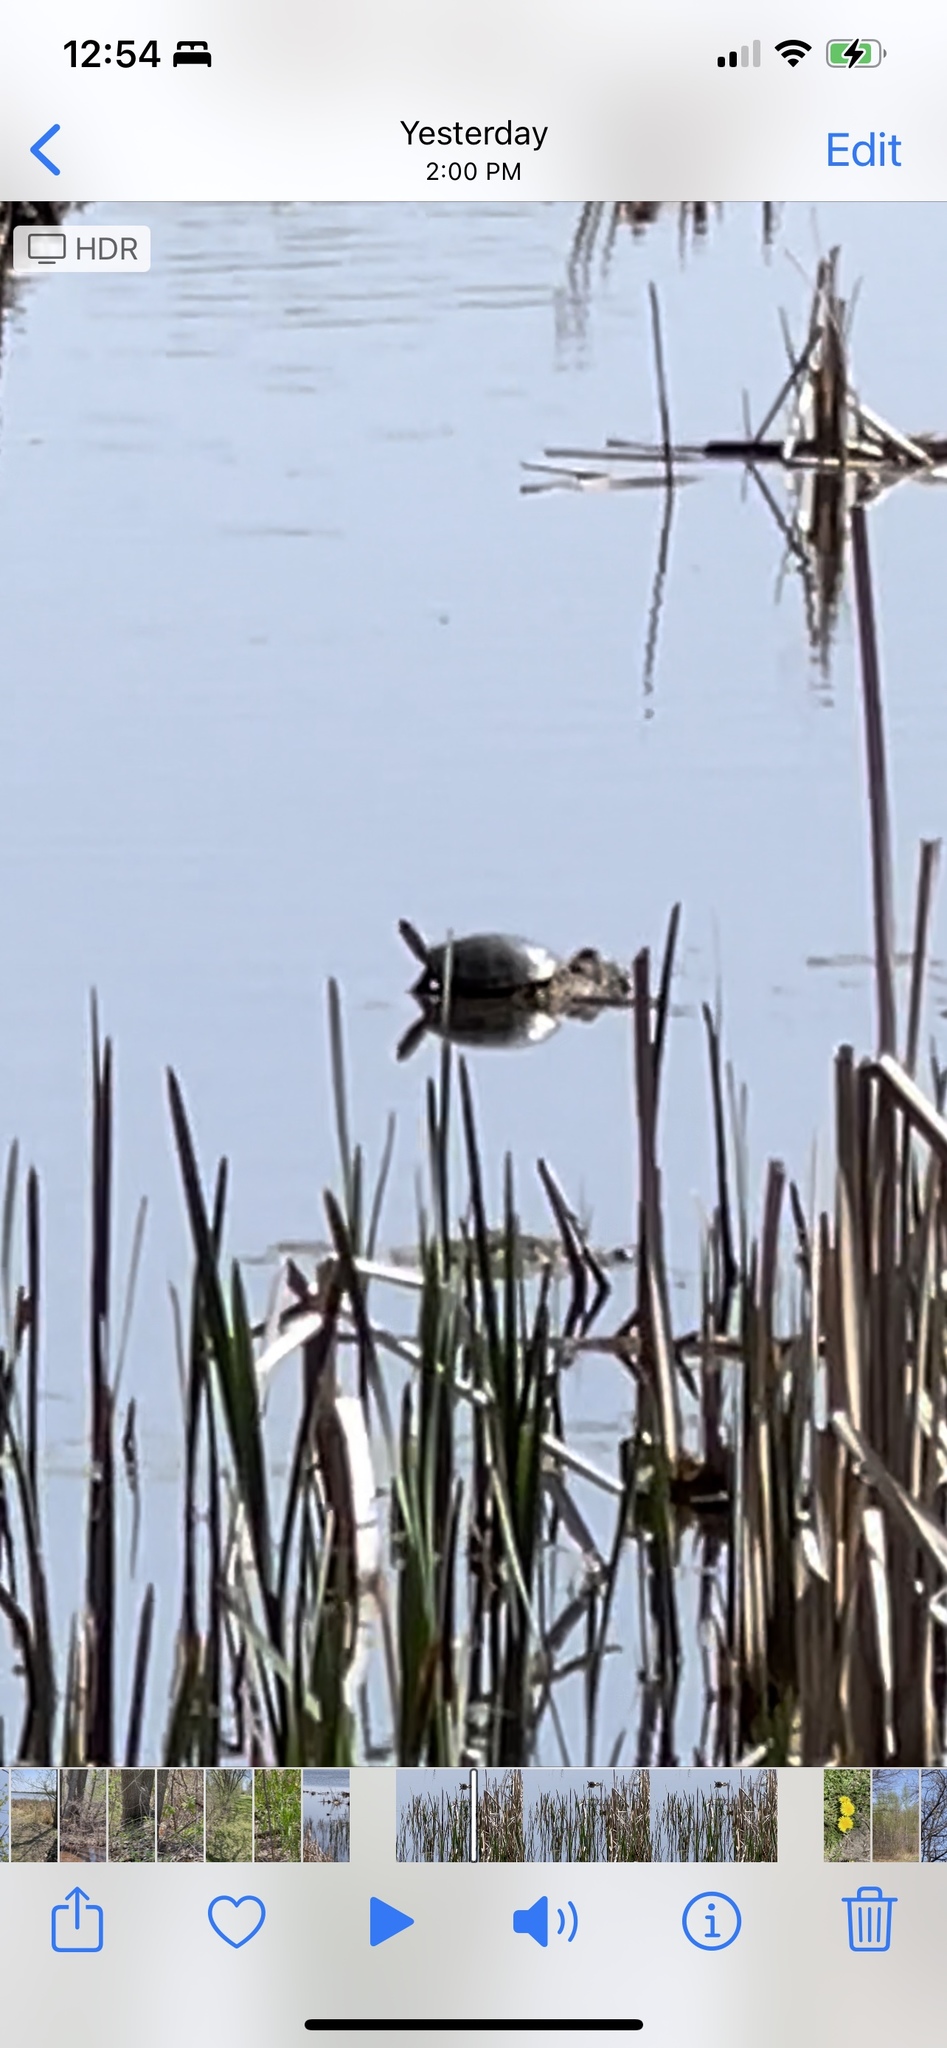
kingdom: Animalia
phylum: Chordata
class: Testudines
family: Emydidae
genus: Chrysemys
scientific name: Chrysemys picta
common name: Painted turtle
